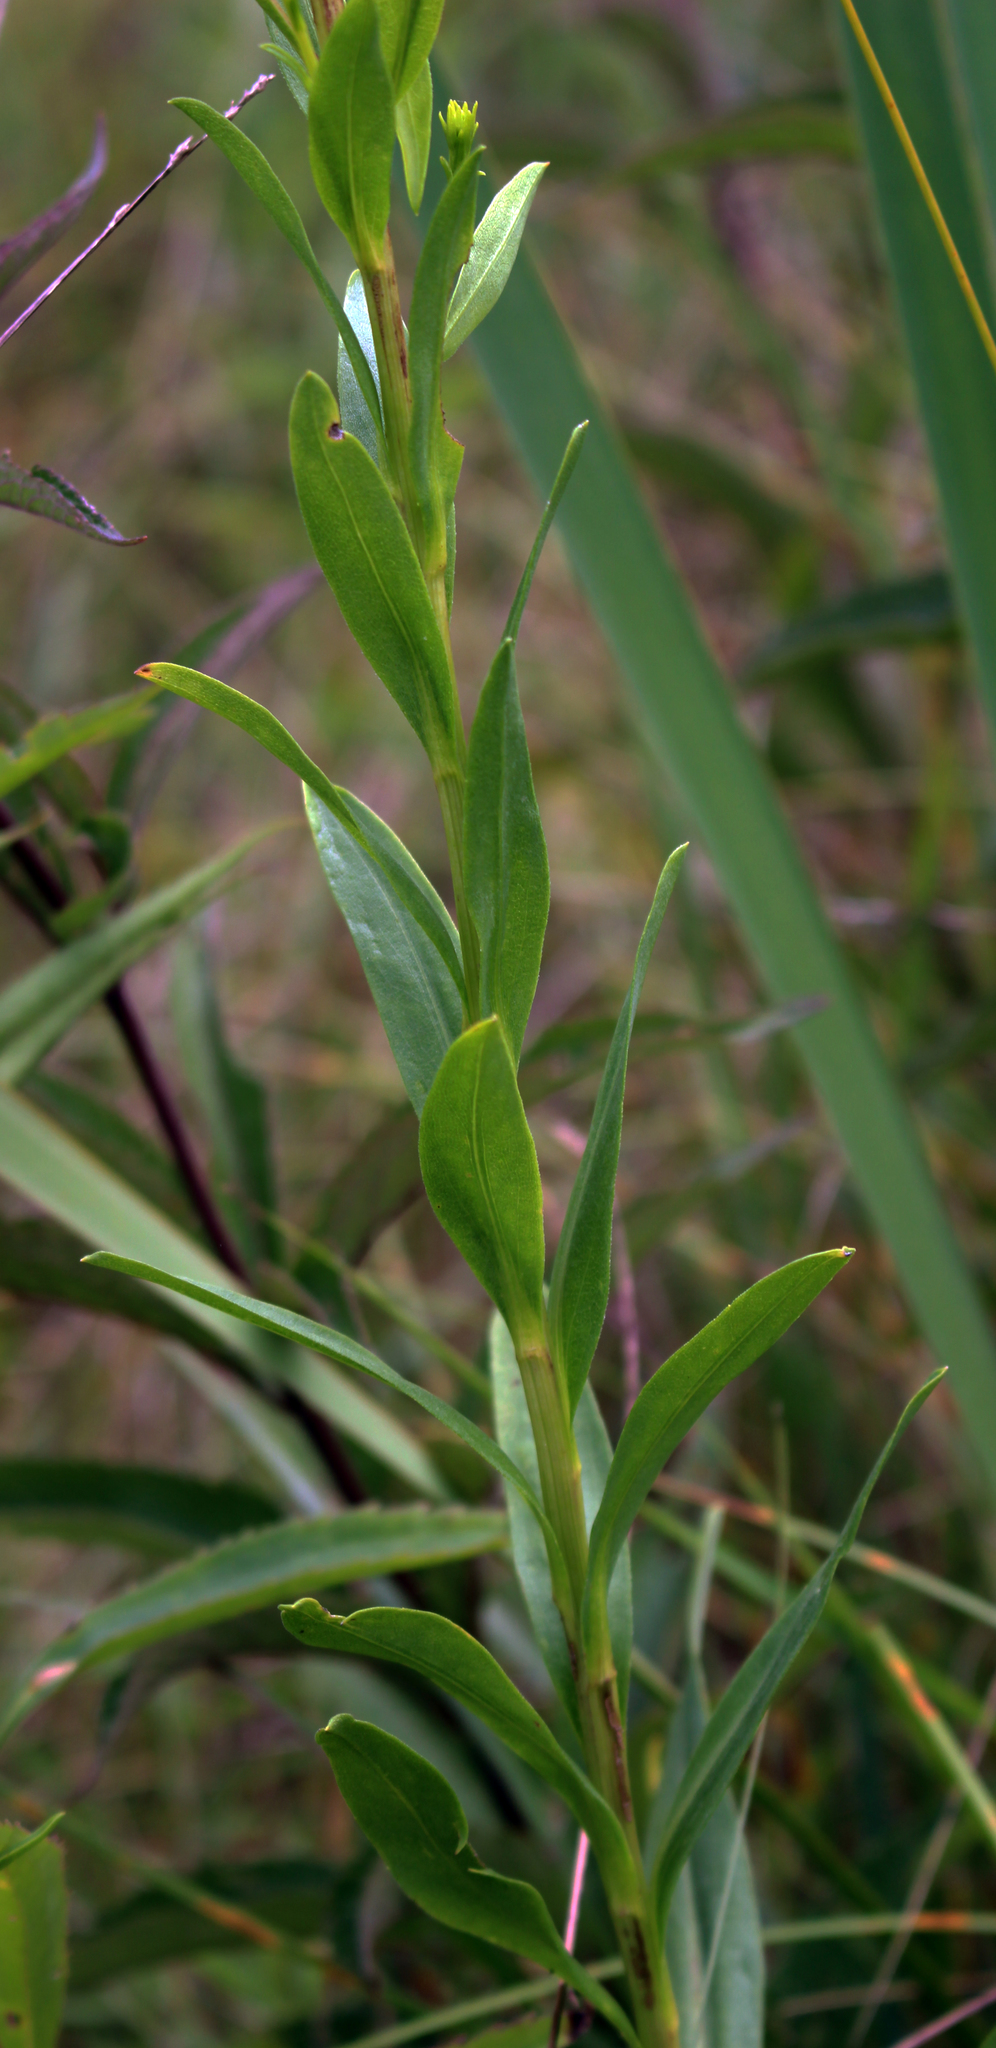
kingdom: Plantae
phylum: Tracheophyta
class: Magnoliopsida
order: Asterales
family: Asteraceae
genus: Solidago
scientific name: Solidago ohioensis
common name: Ohio goldenrod
